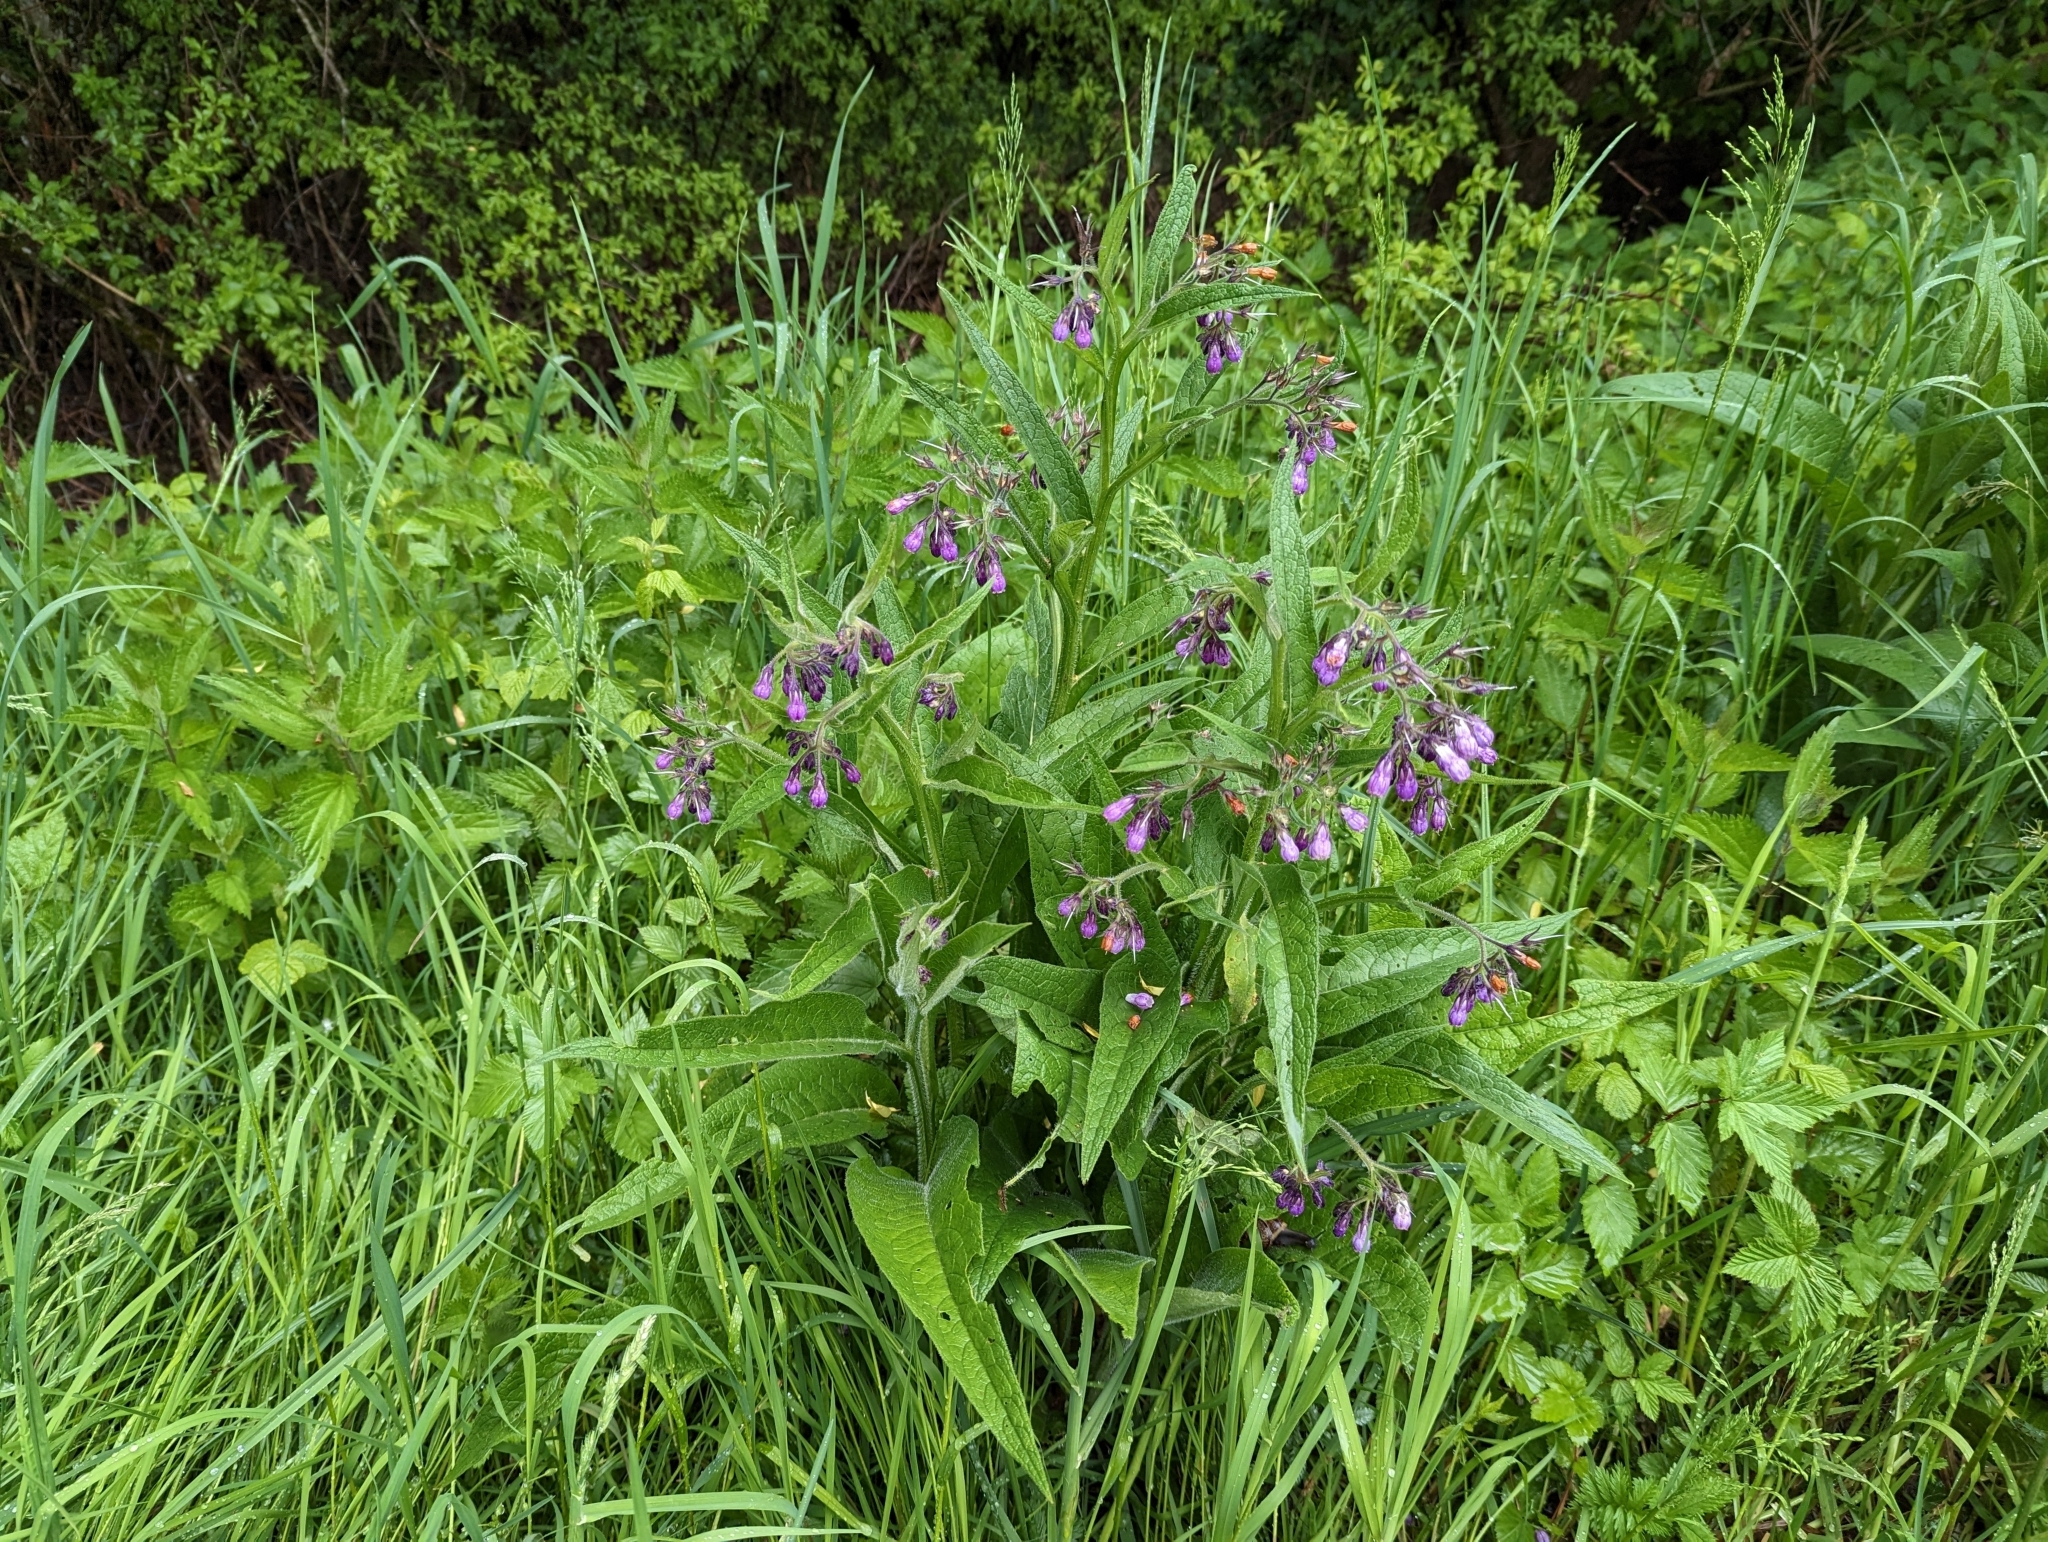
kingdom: Plantae
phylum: Tracheophyta
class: Magnoliopsida
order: Boraginales
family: Boraginaceae
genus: Symphytum
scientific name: Symphytum officinale
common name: Common comfrey
